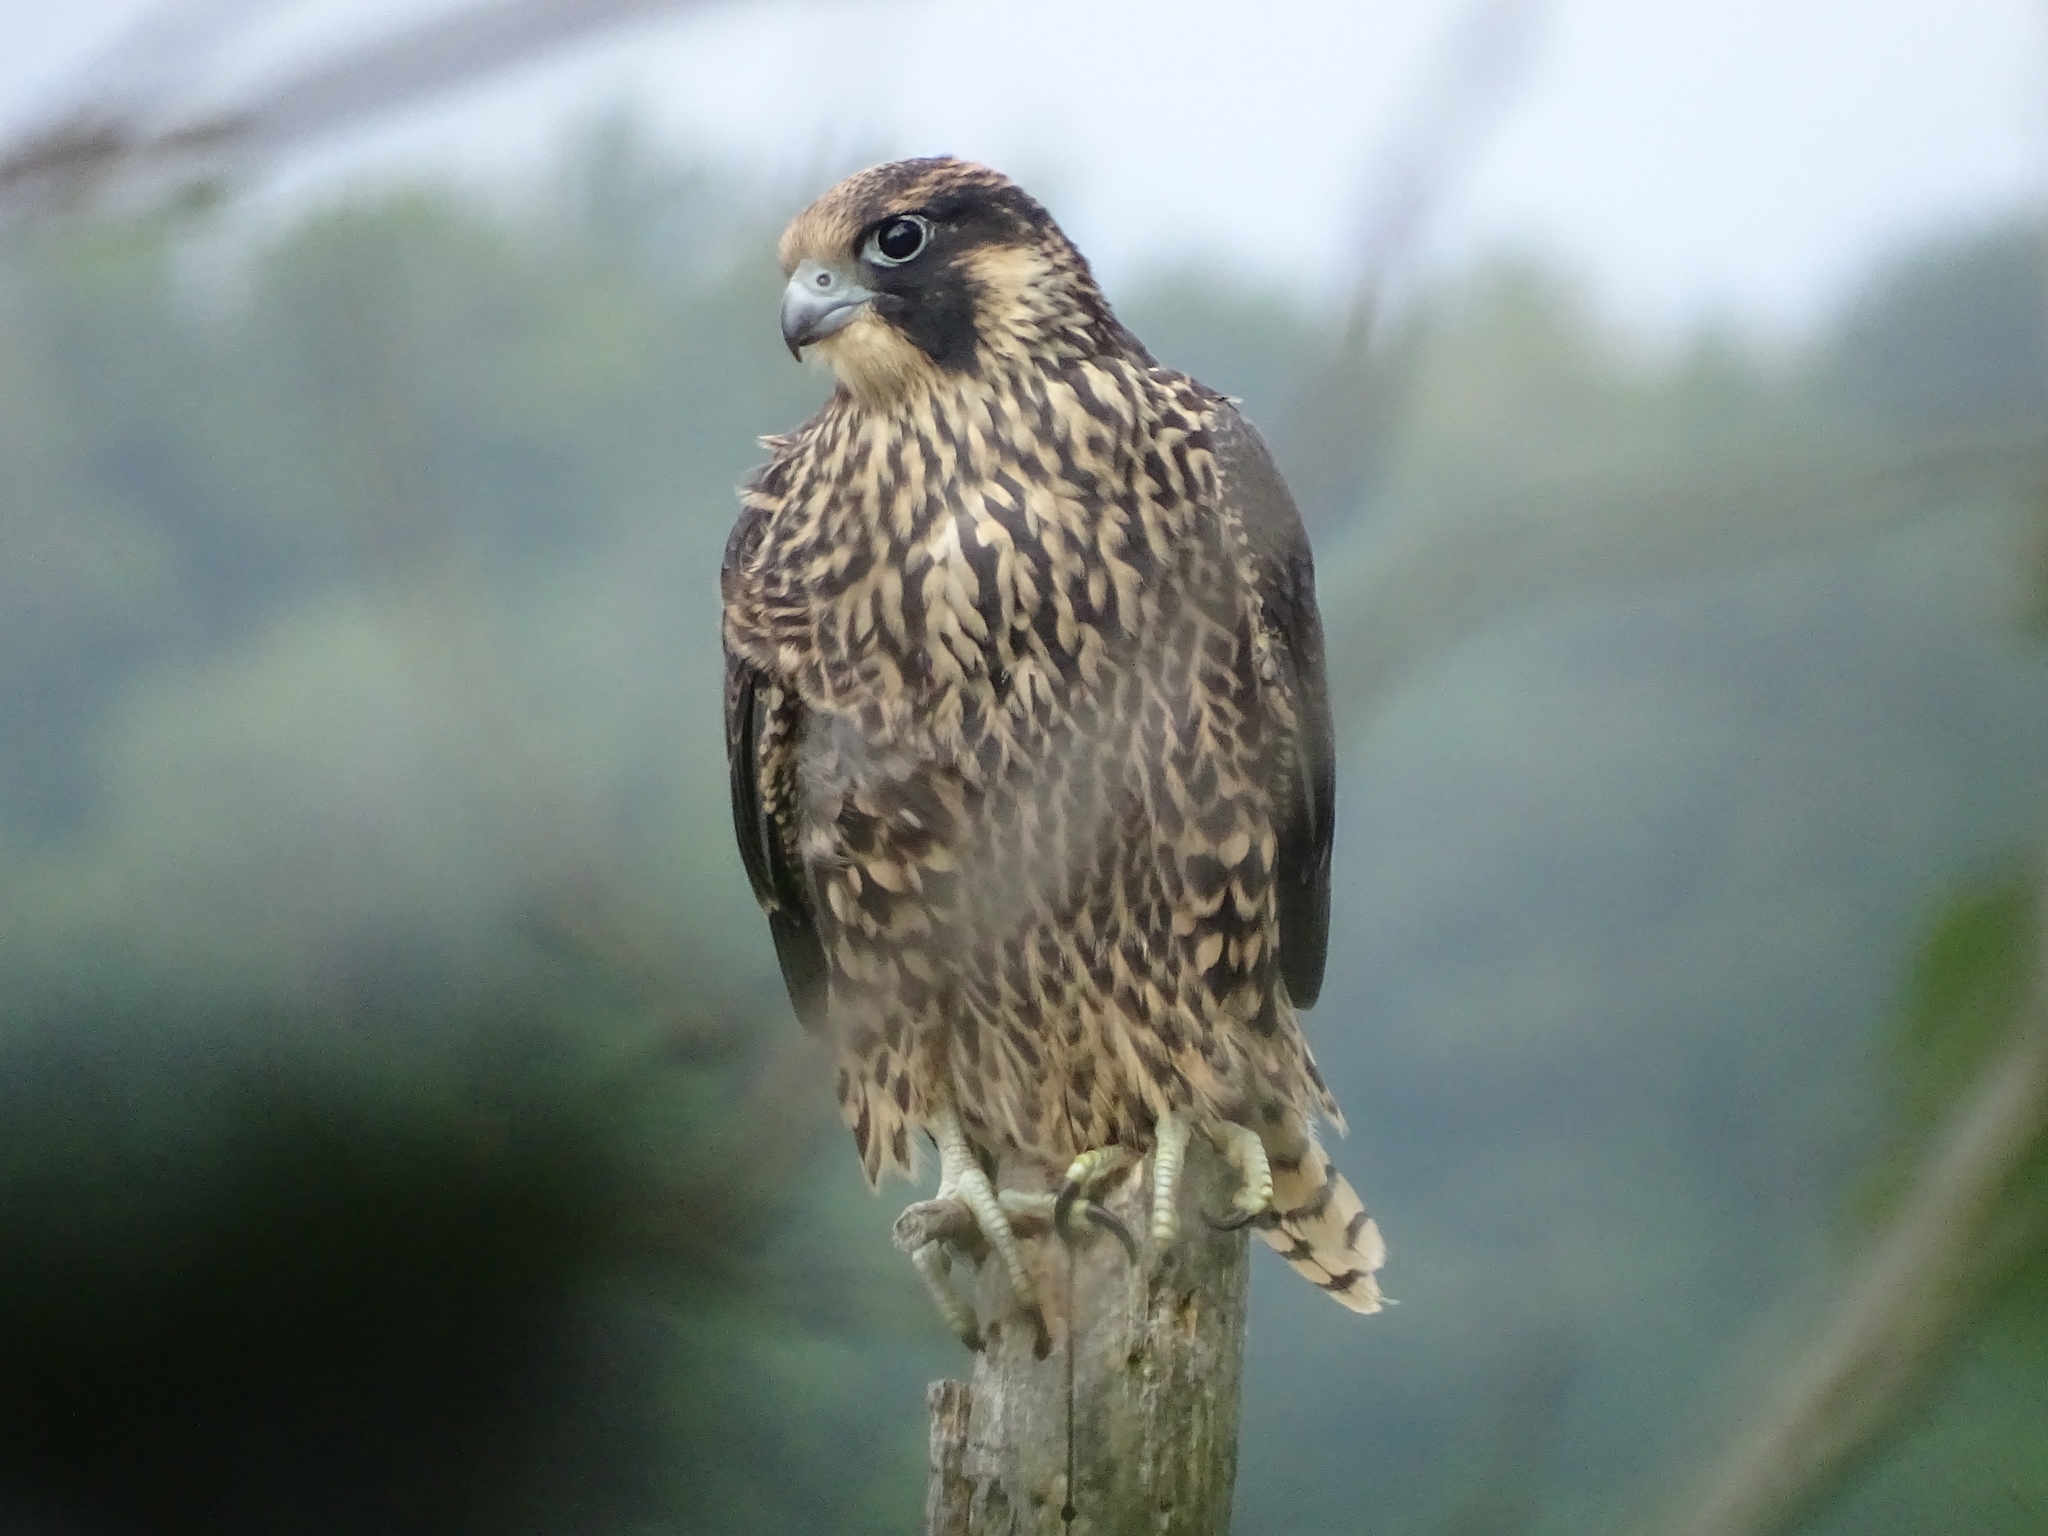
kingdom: Animalia
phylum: Chordata
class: Aves
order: Falconiformes
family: Falconidae
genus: Falco
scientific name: Falco peregrinus
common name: Peregrine falcon
